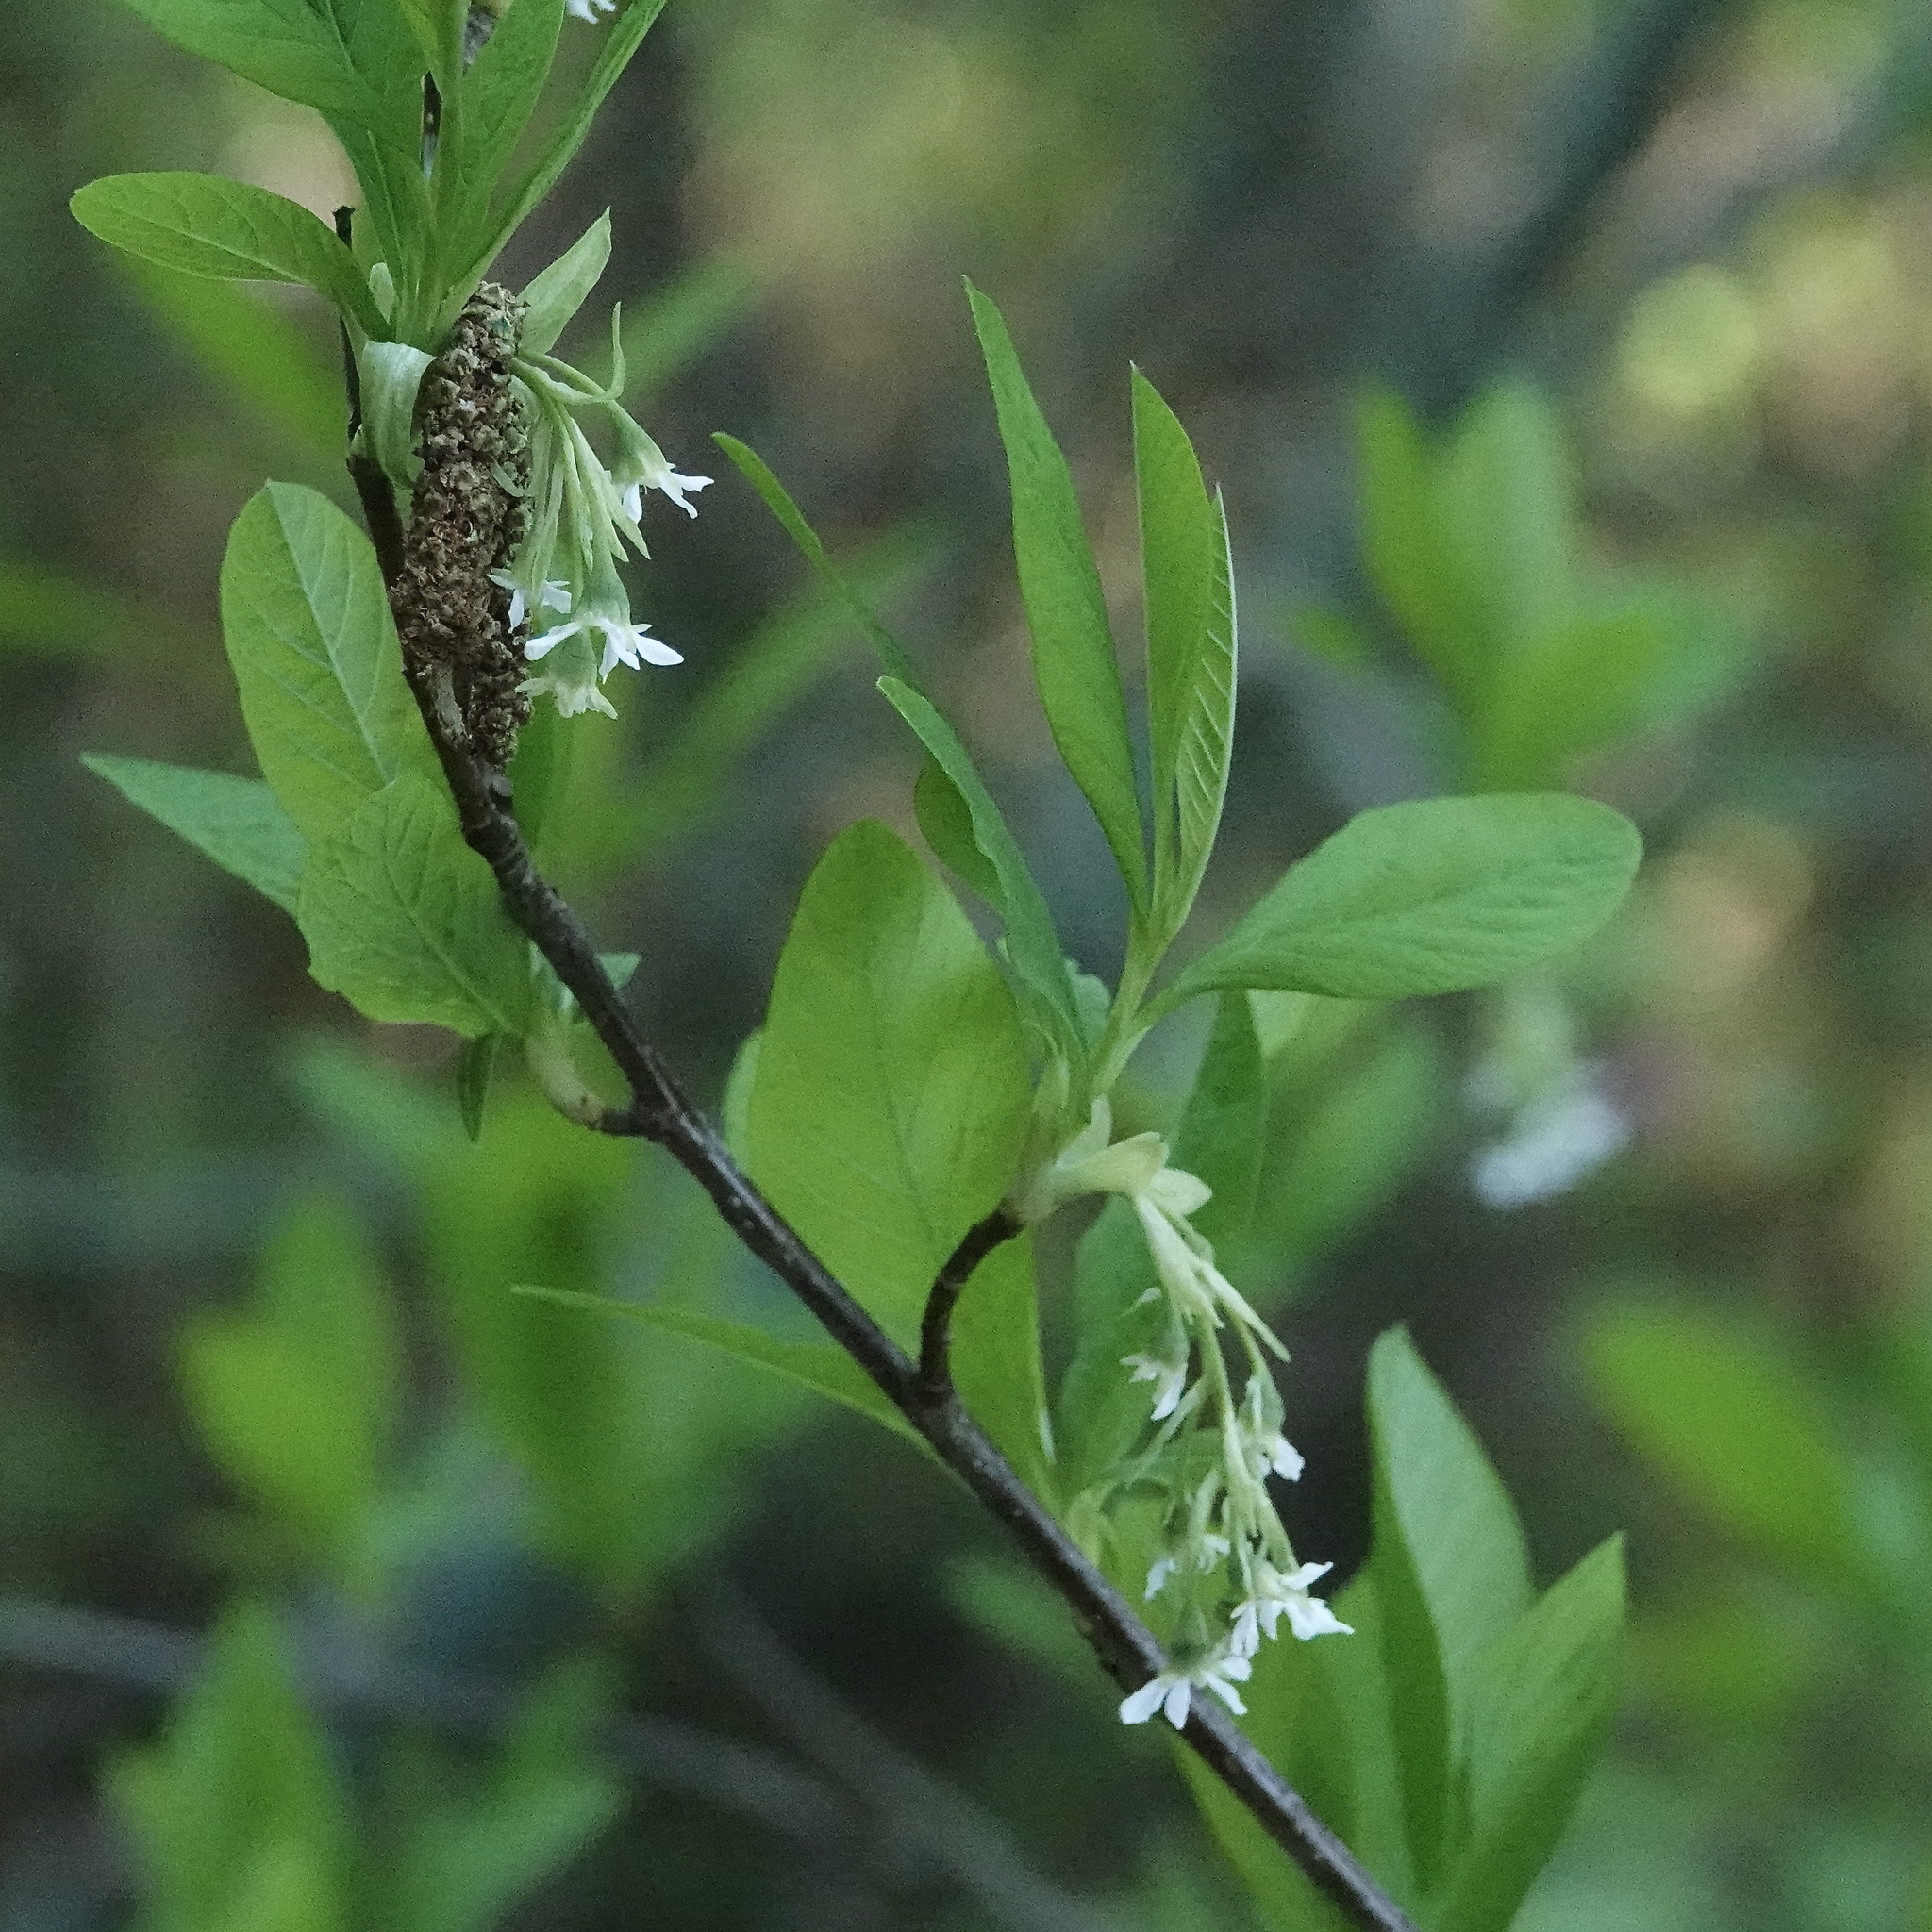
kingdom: Plantae
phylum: Tracheophyta
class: Magnoliopsida
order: Rosales
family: Rosaceae
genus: Oemleria
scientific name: Oemleria cerasiformis
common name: Osoberry
